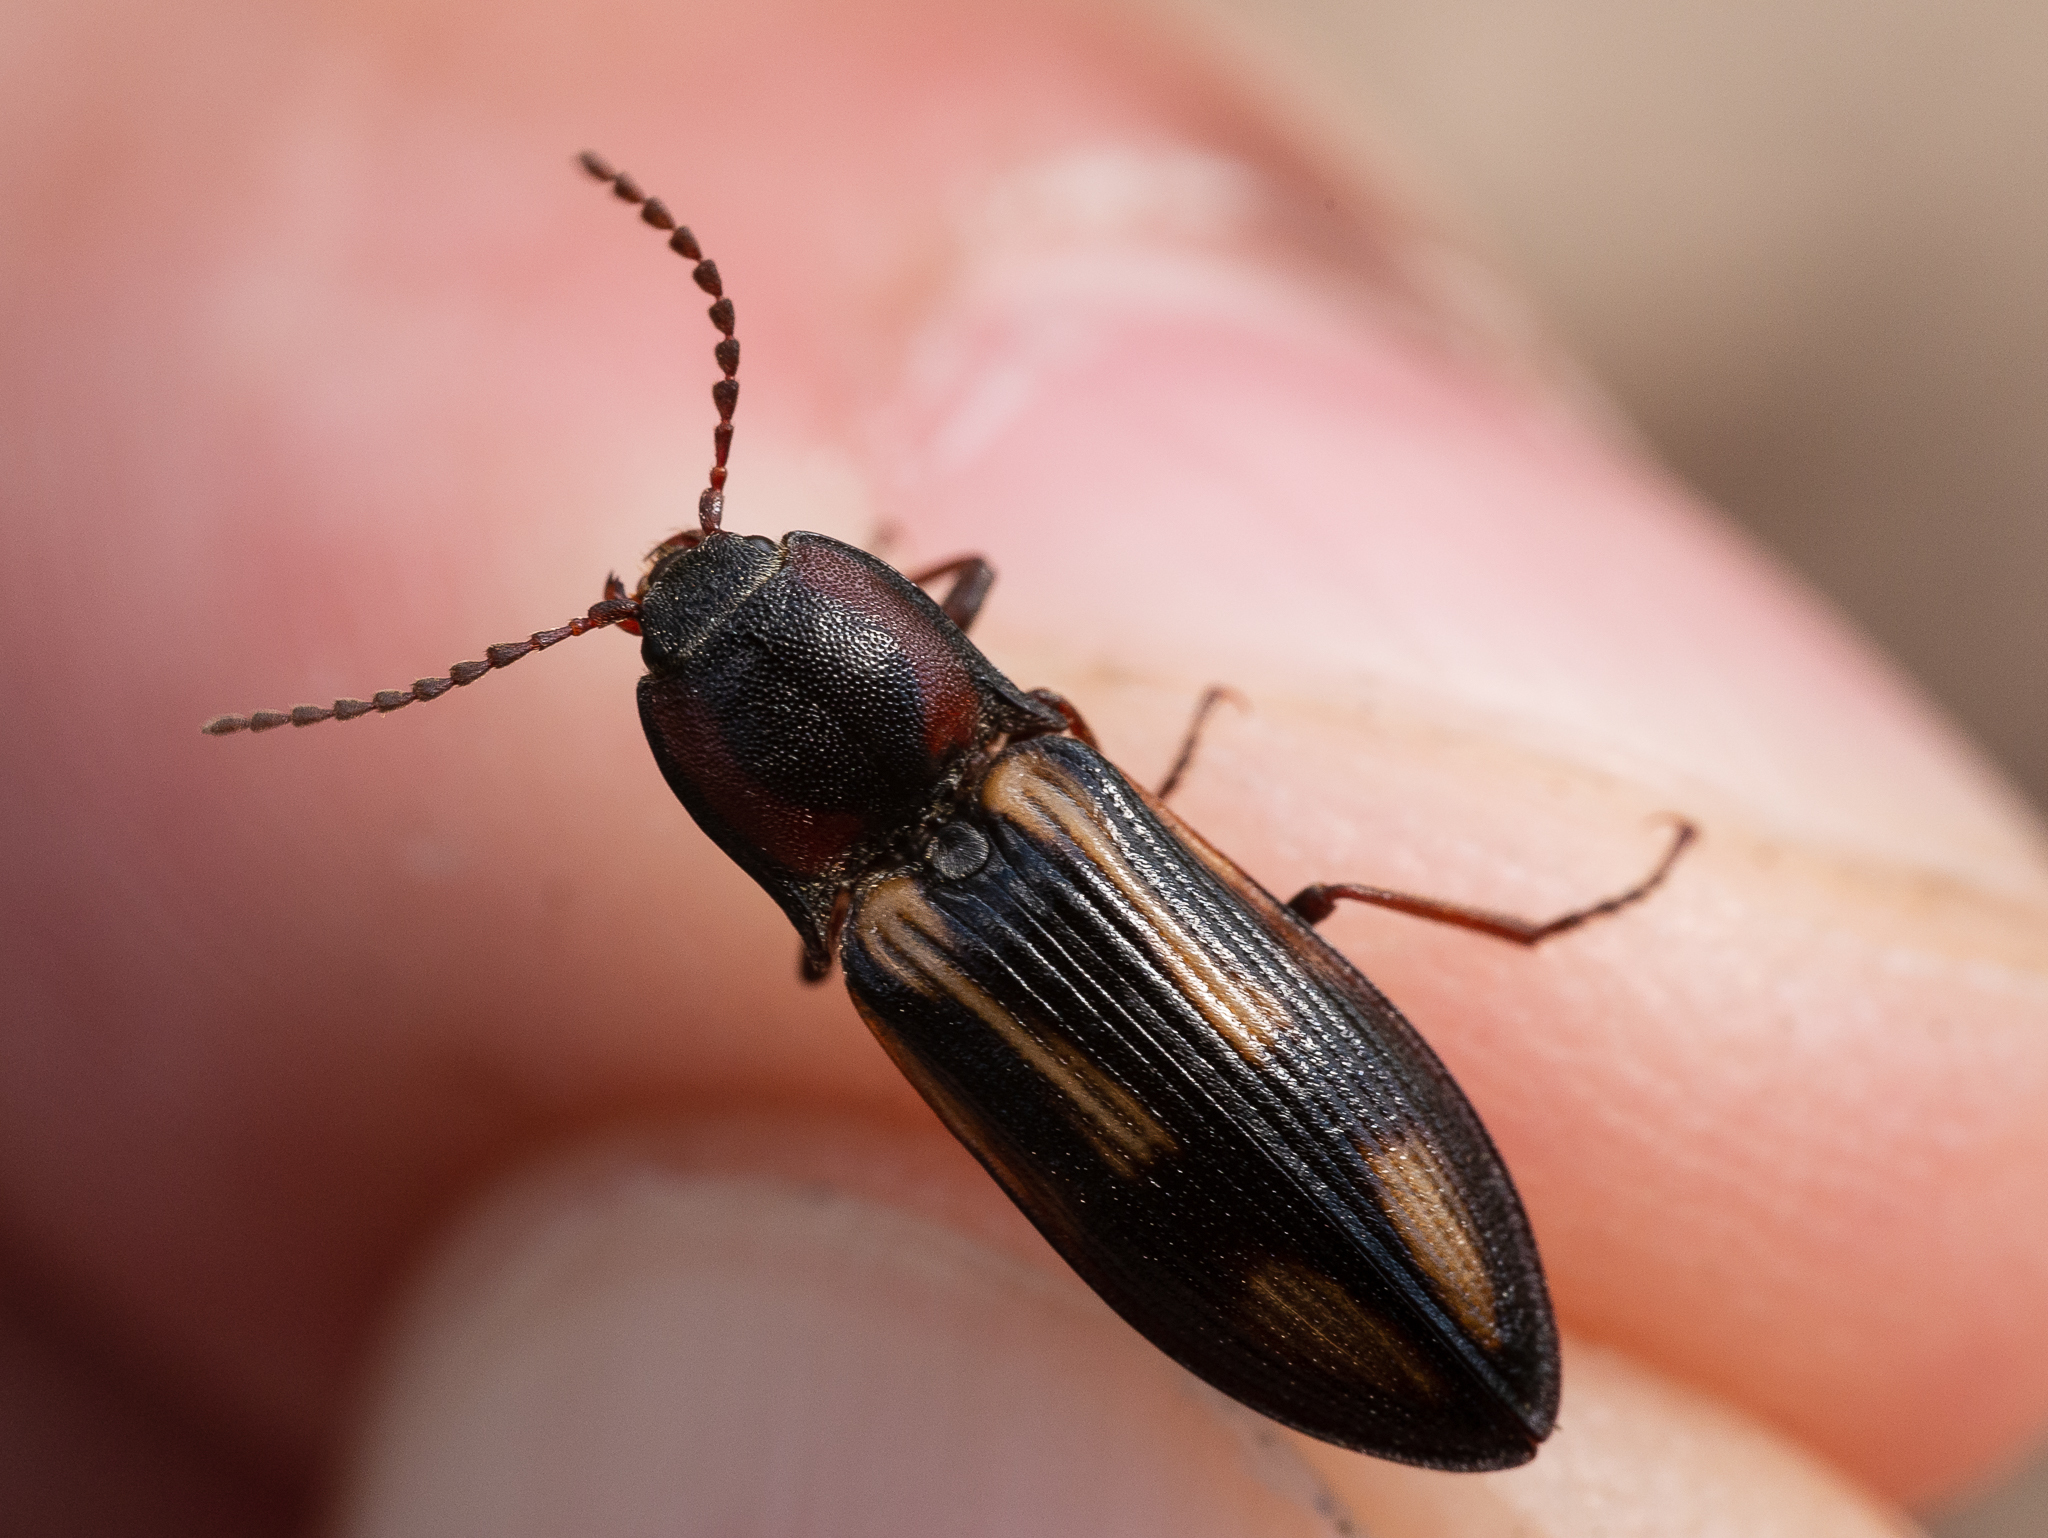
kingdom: Animalia
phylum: Arthropoda
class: Insecta
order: Coleoptera
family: Elateridae
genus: Selatosomus
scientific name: Selatosomus cruciatus
